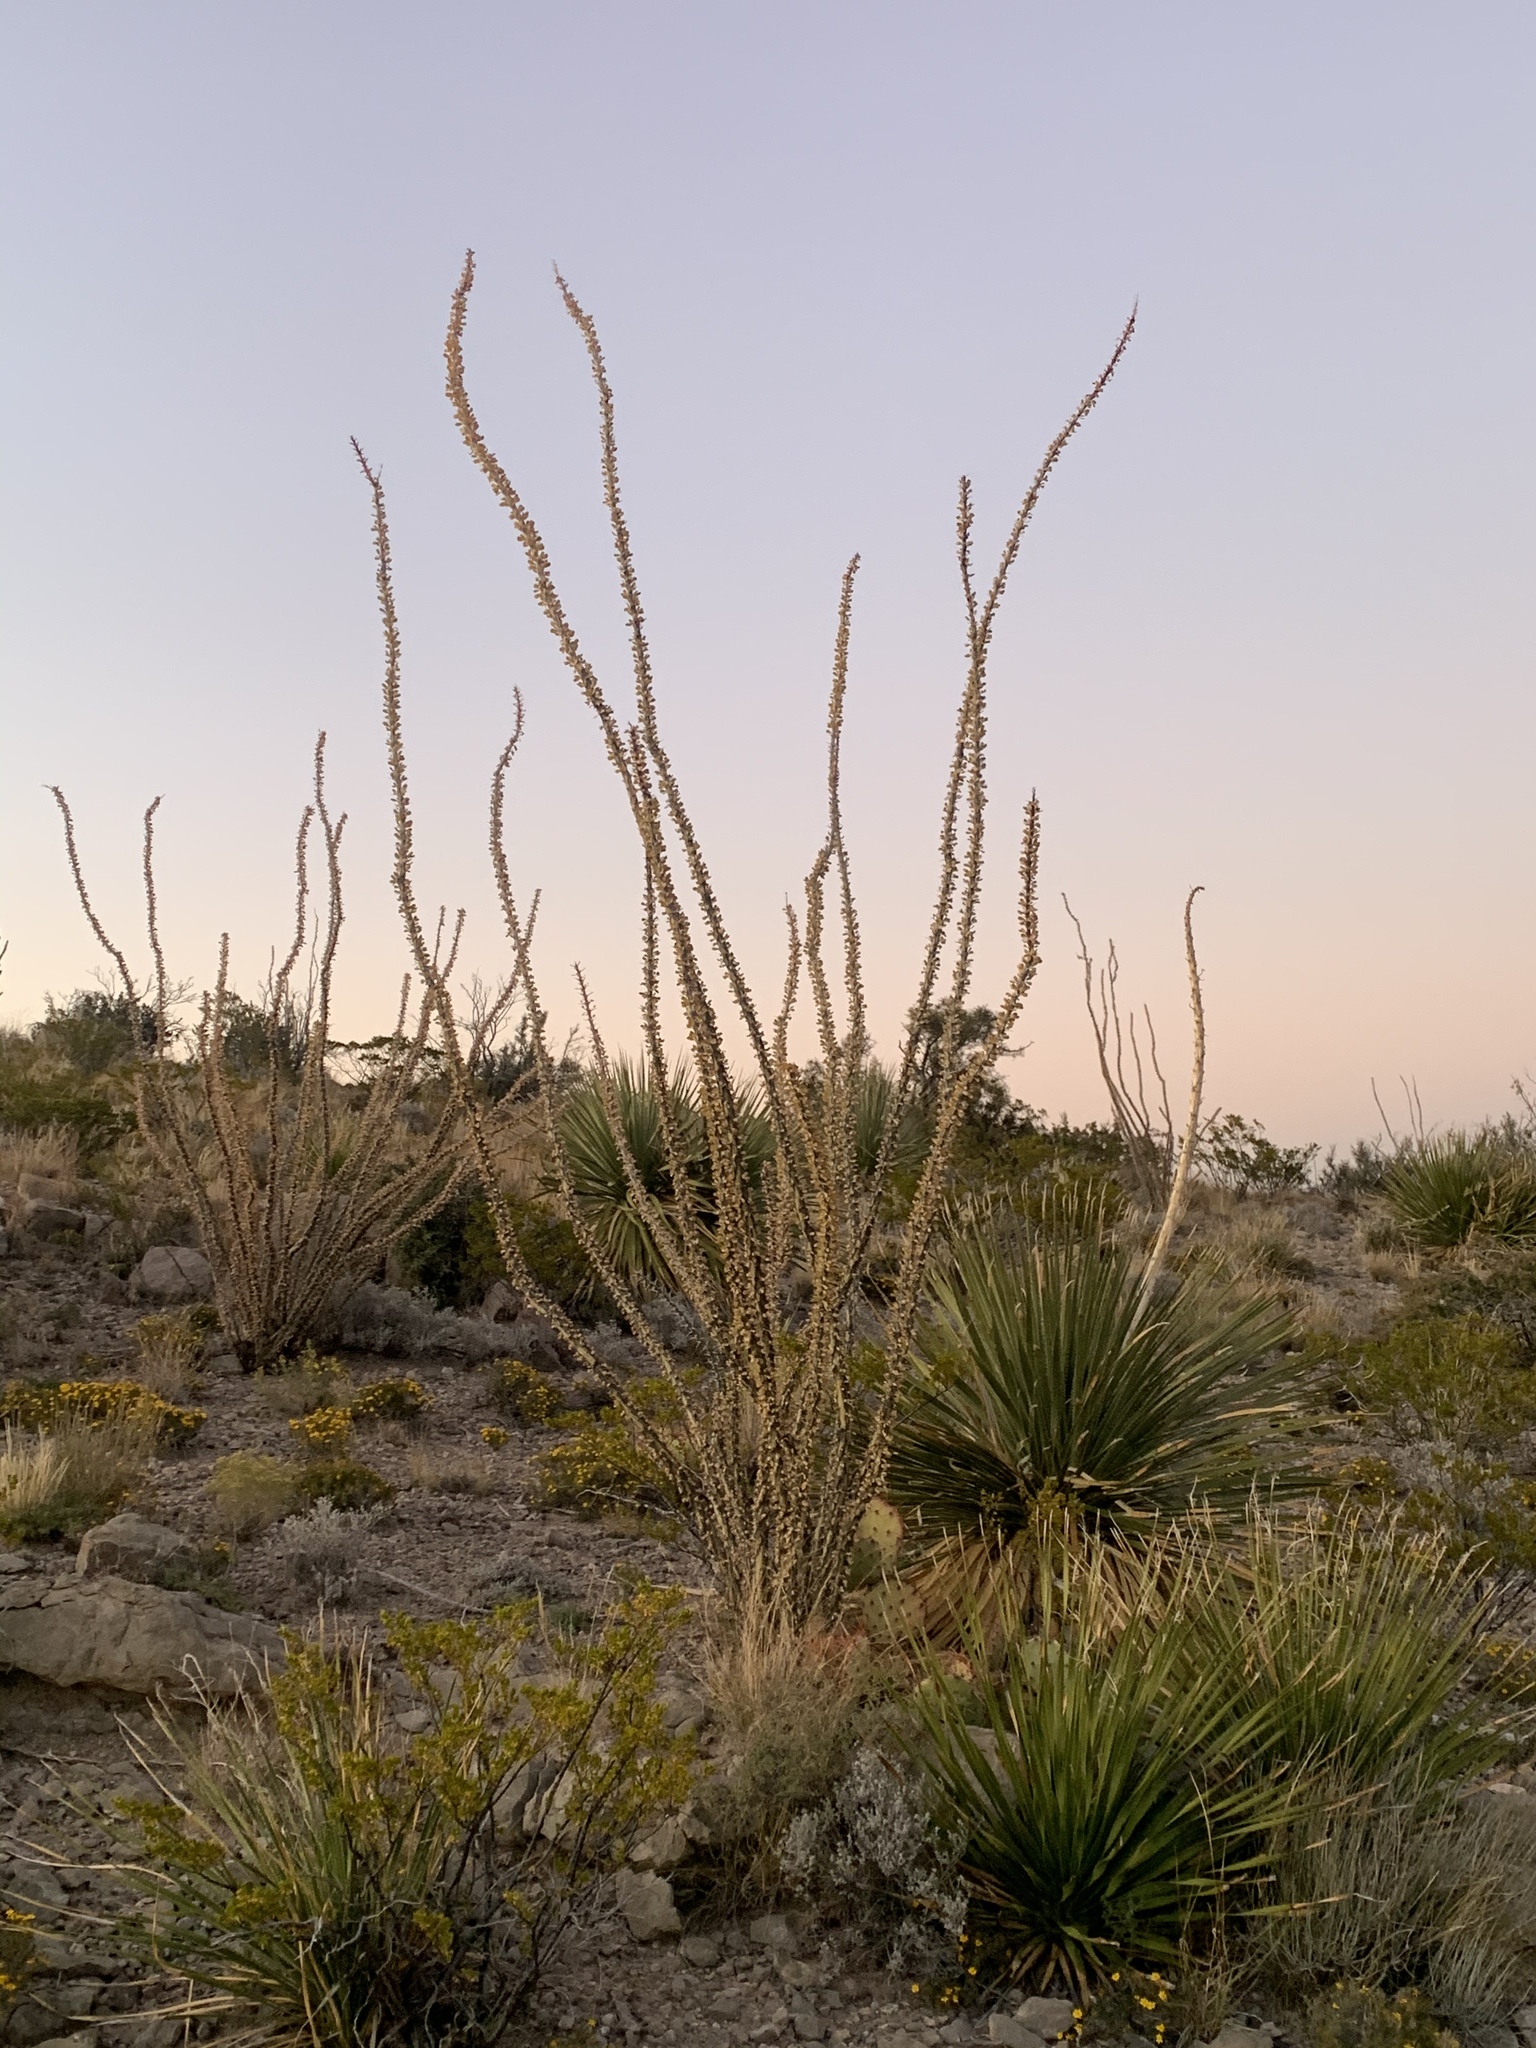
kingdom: Plantae
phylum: Tracheophyta
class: Magnoliopsida
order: Ericales
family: Fouquieriaceae
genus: Fouquieria
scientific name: Fouquieria splendens
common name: Vine-cactus
